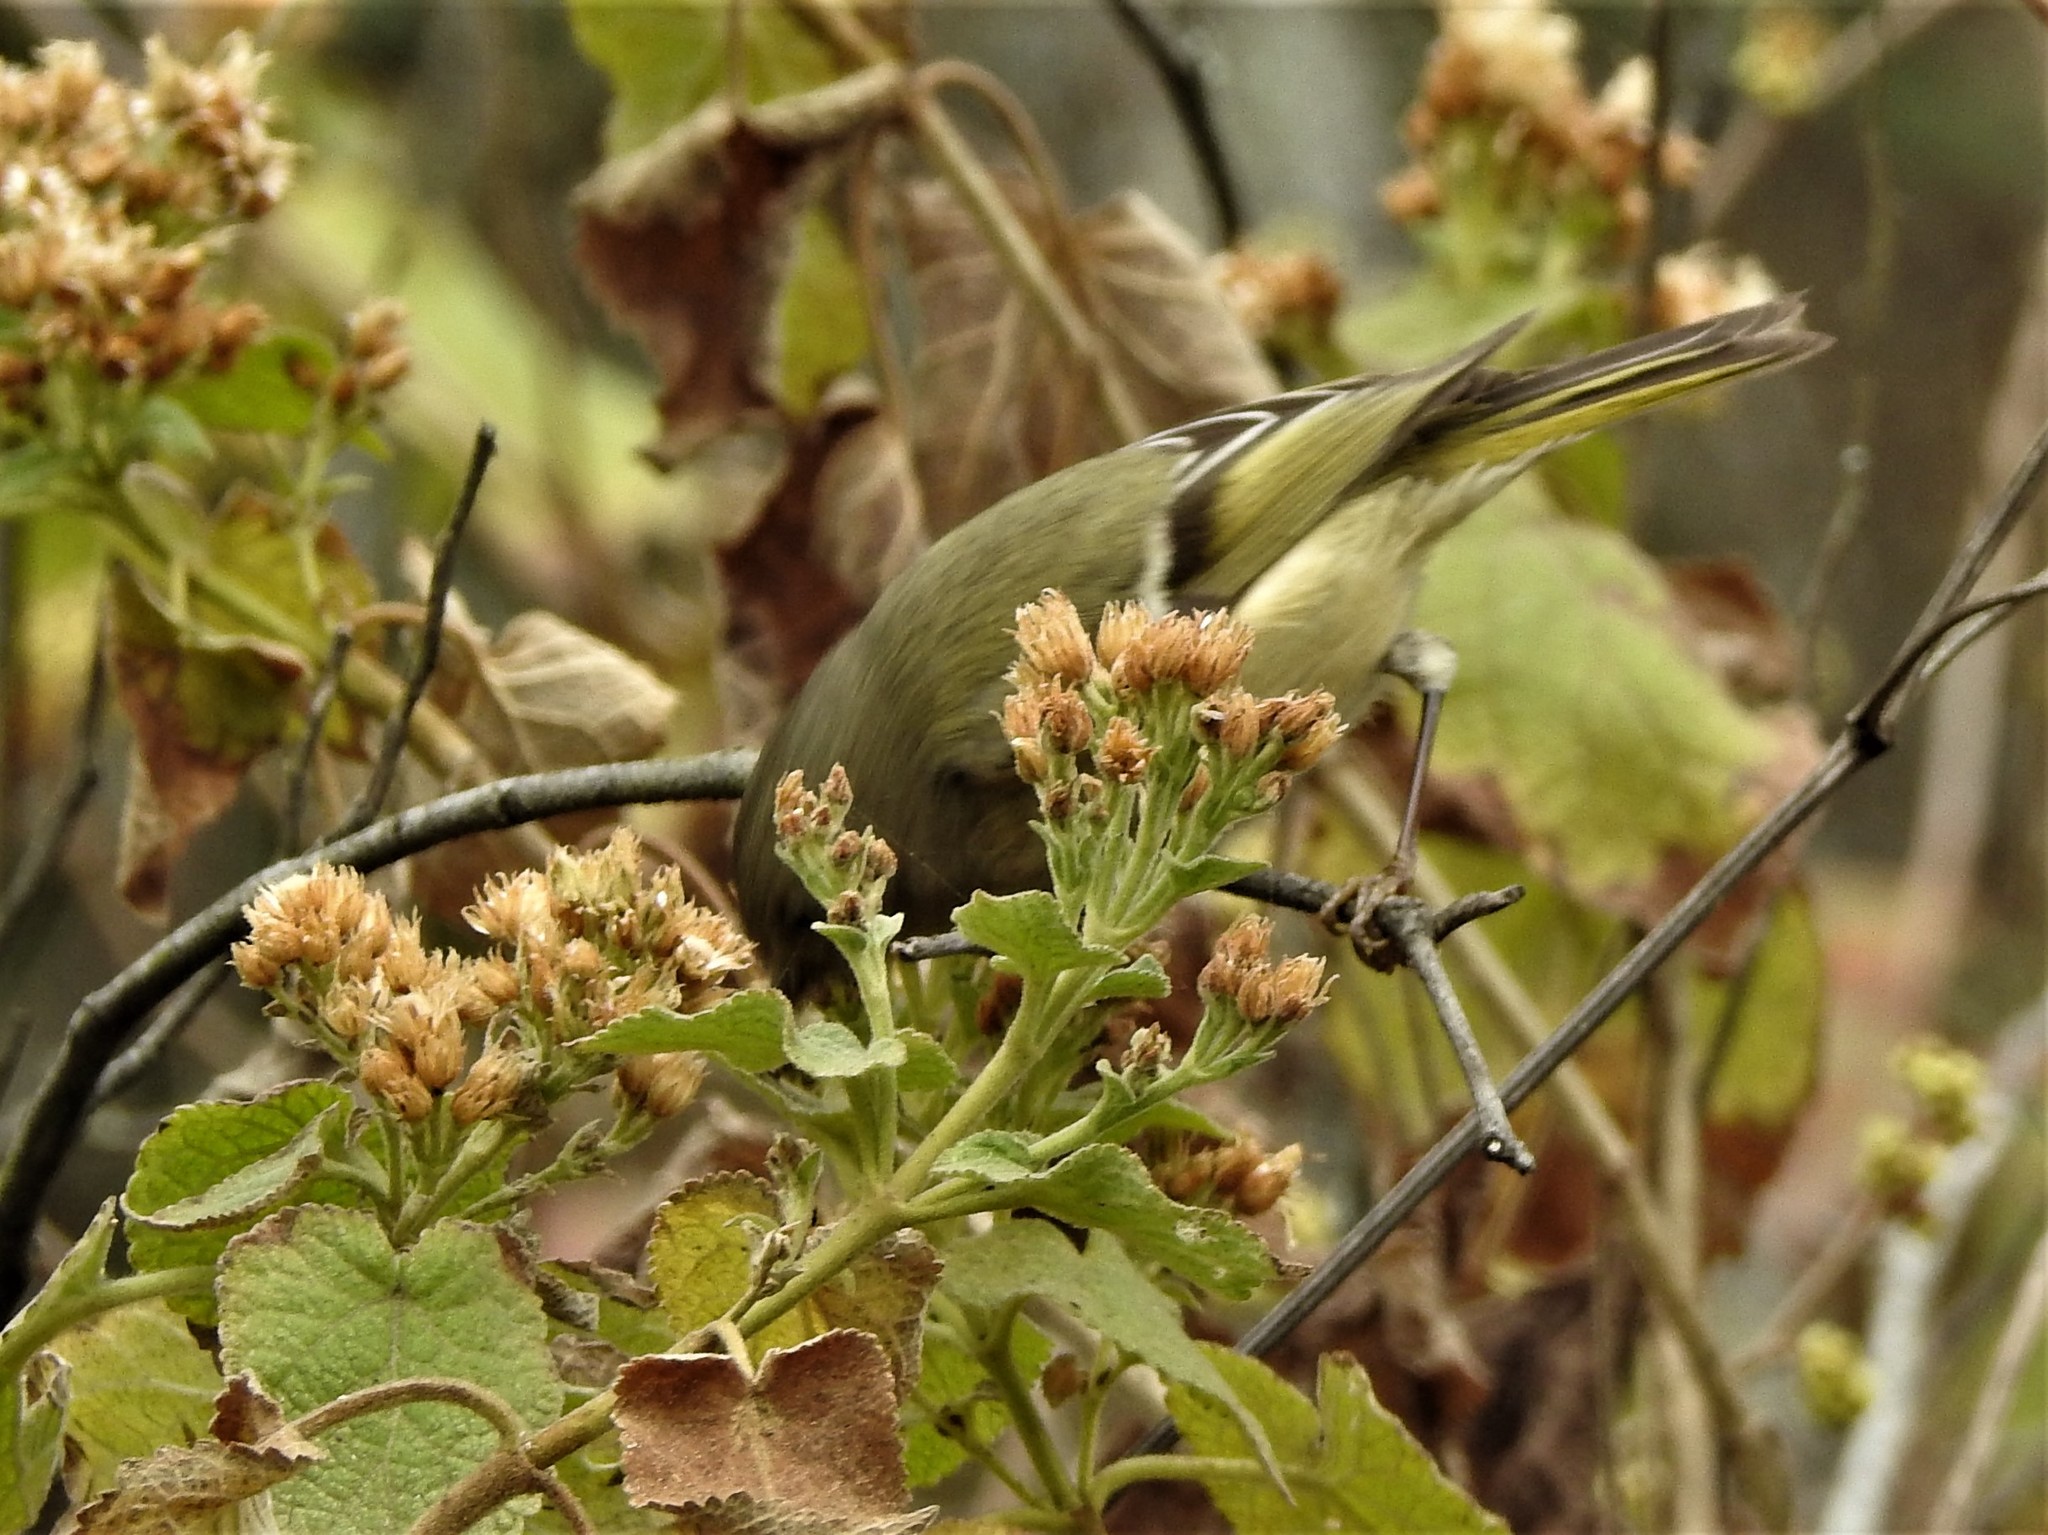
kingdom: Animalia
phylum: Chordata
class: Aves
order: Passeriformes
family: Regulidae
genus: Regulus
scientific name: Regulus calendula
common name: Ruby-crowned kinglet
